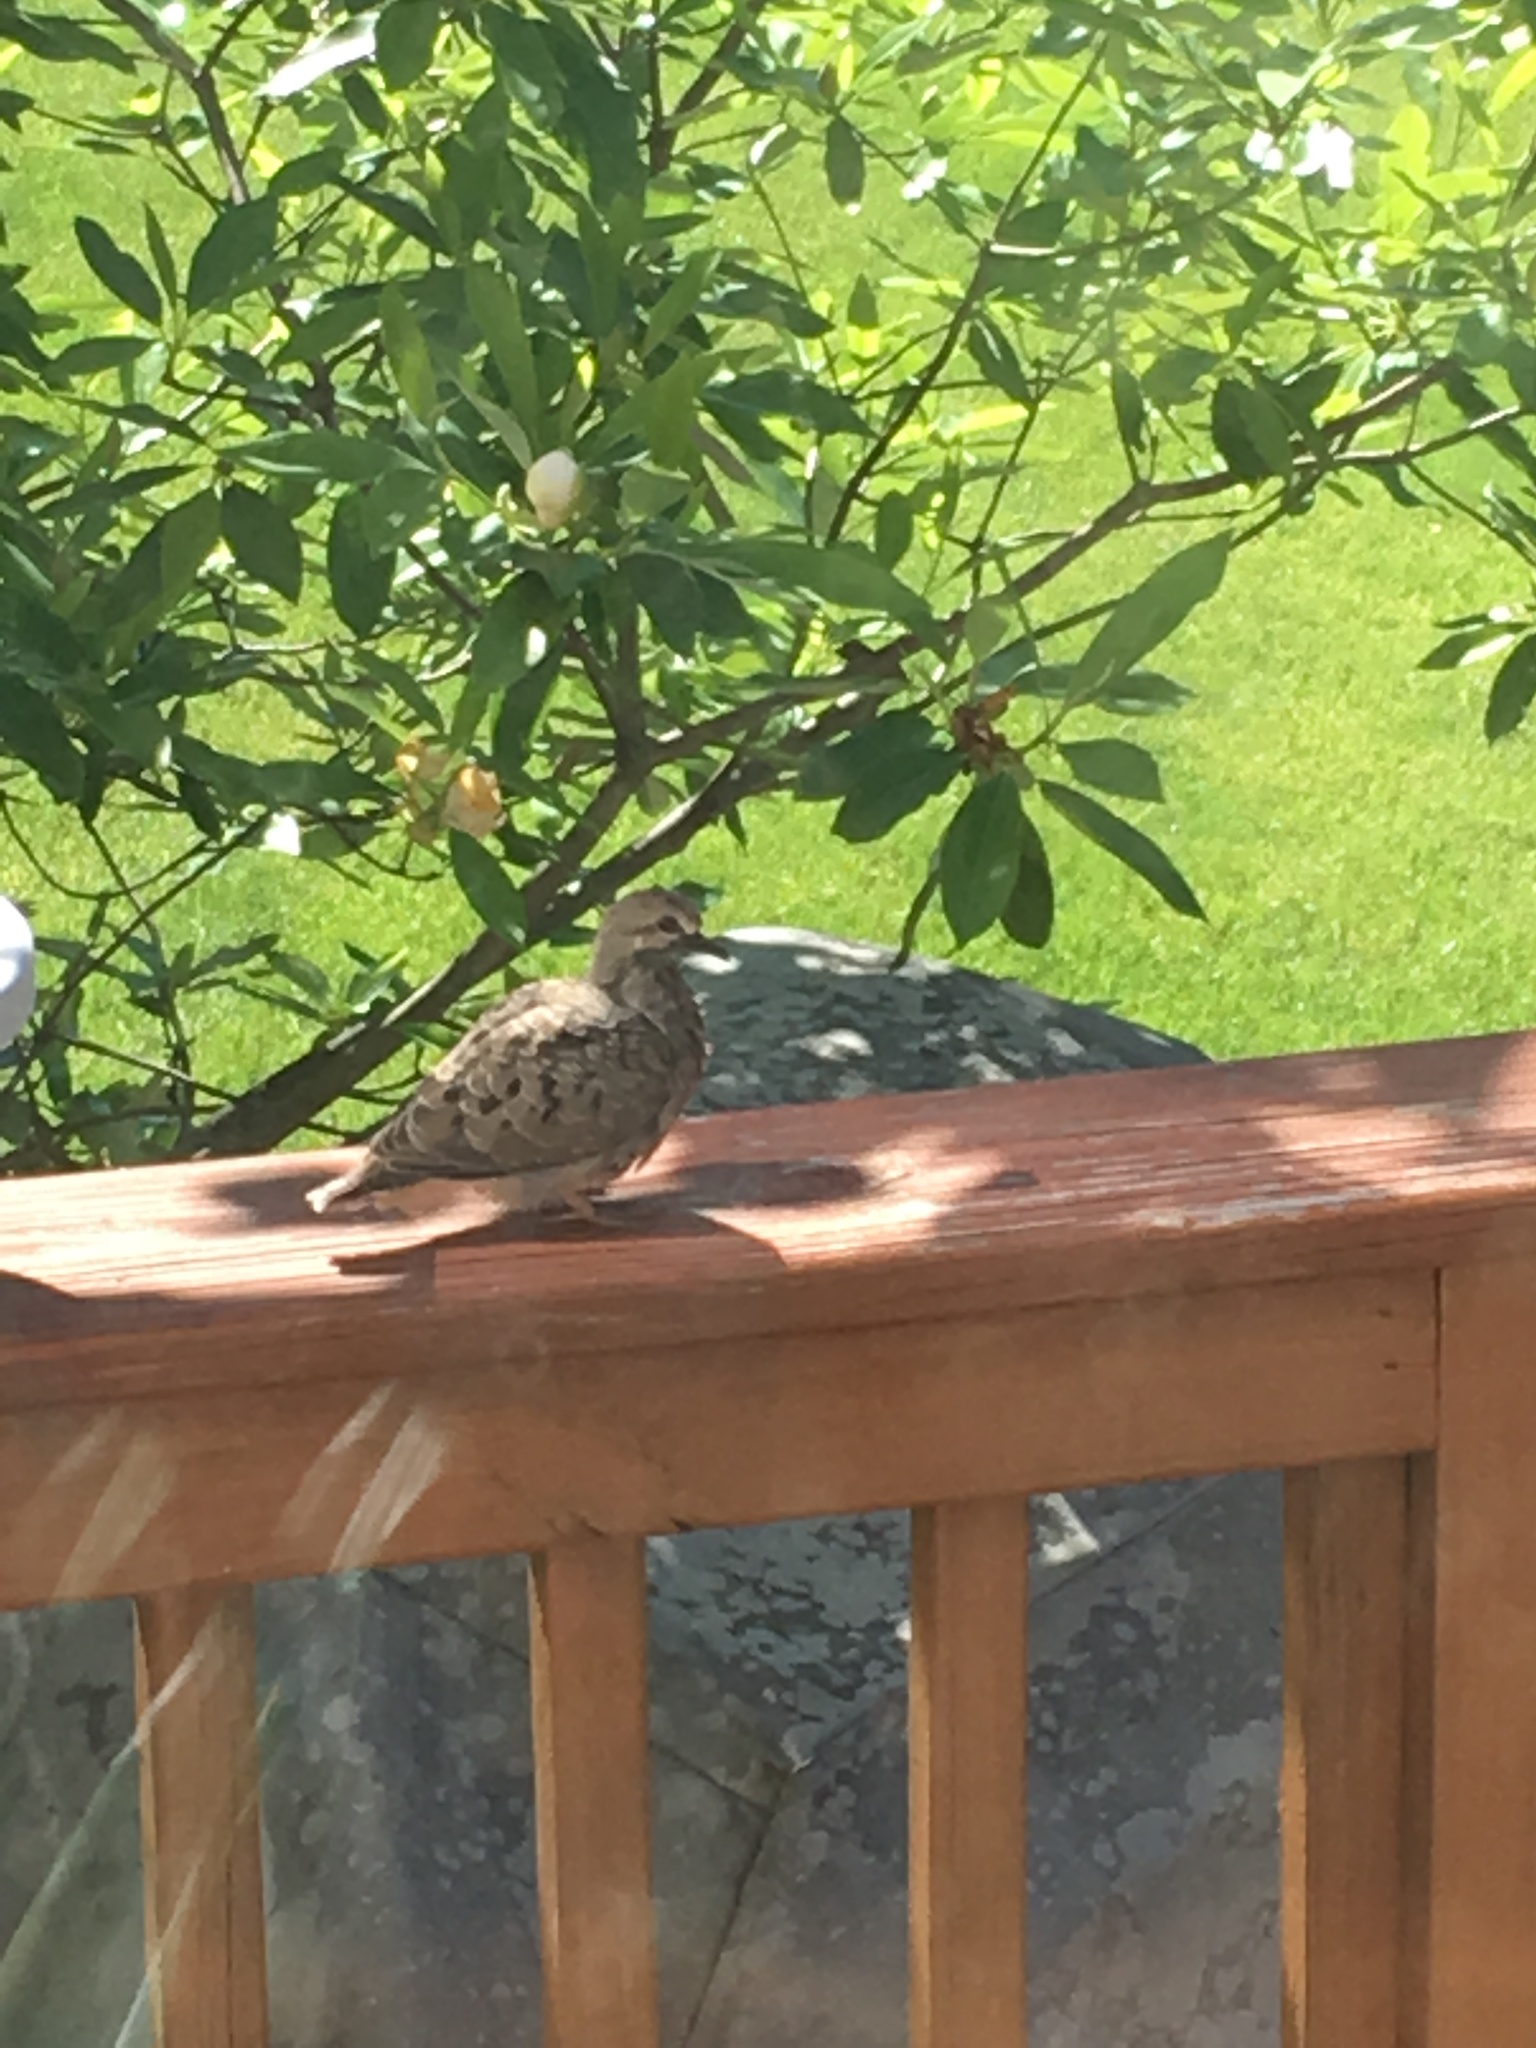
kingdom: Animalia
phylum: Chordata
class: Aves
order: Columbiformes
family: Columbidae
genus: Zenaida
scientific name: Zenaida macroura
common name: Mourning dove
